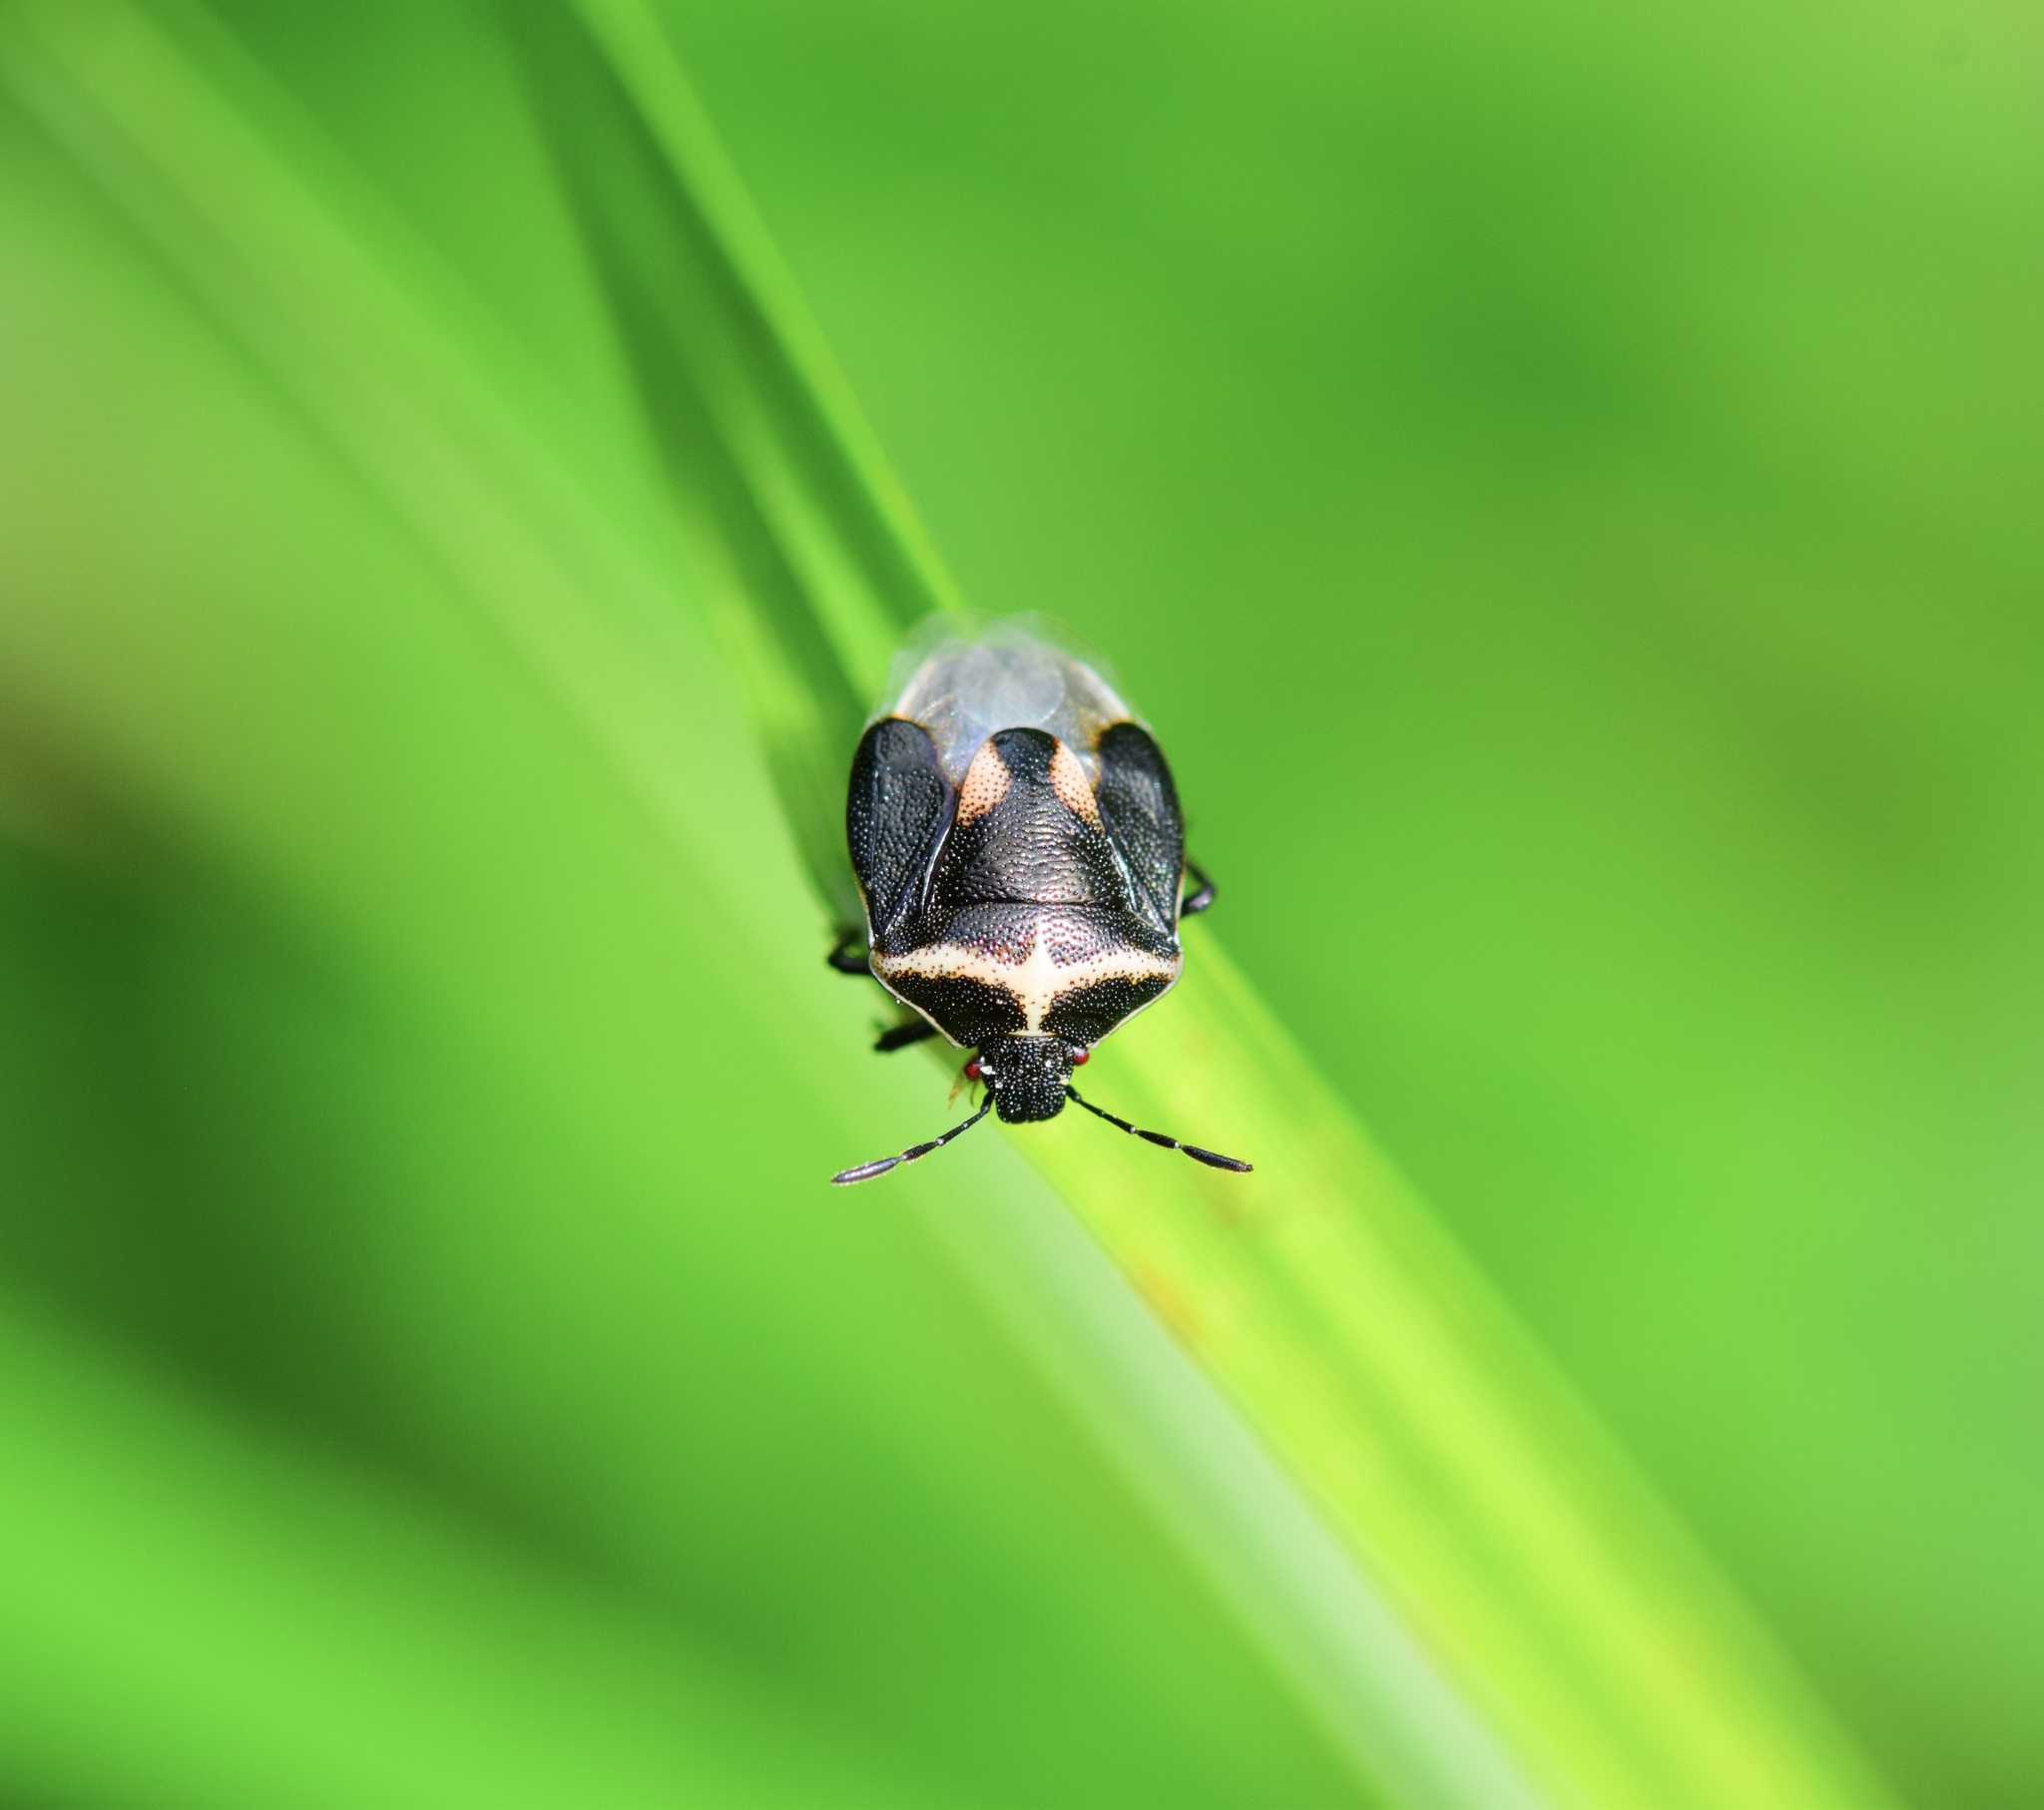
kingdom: Animalia
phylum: Arthropoda
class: Insecta
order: Hemiptera
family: Pentatomidae
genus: Cosmopepla
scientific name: Cosmopepla lintneriana
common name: Twice-stabbed stink bug
